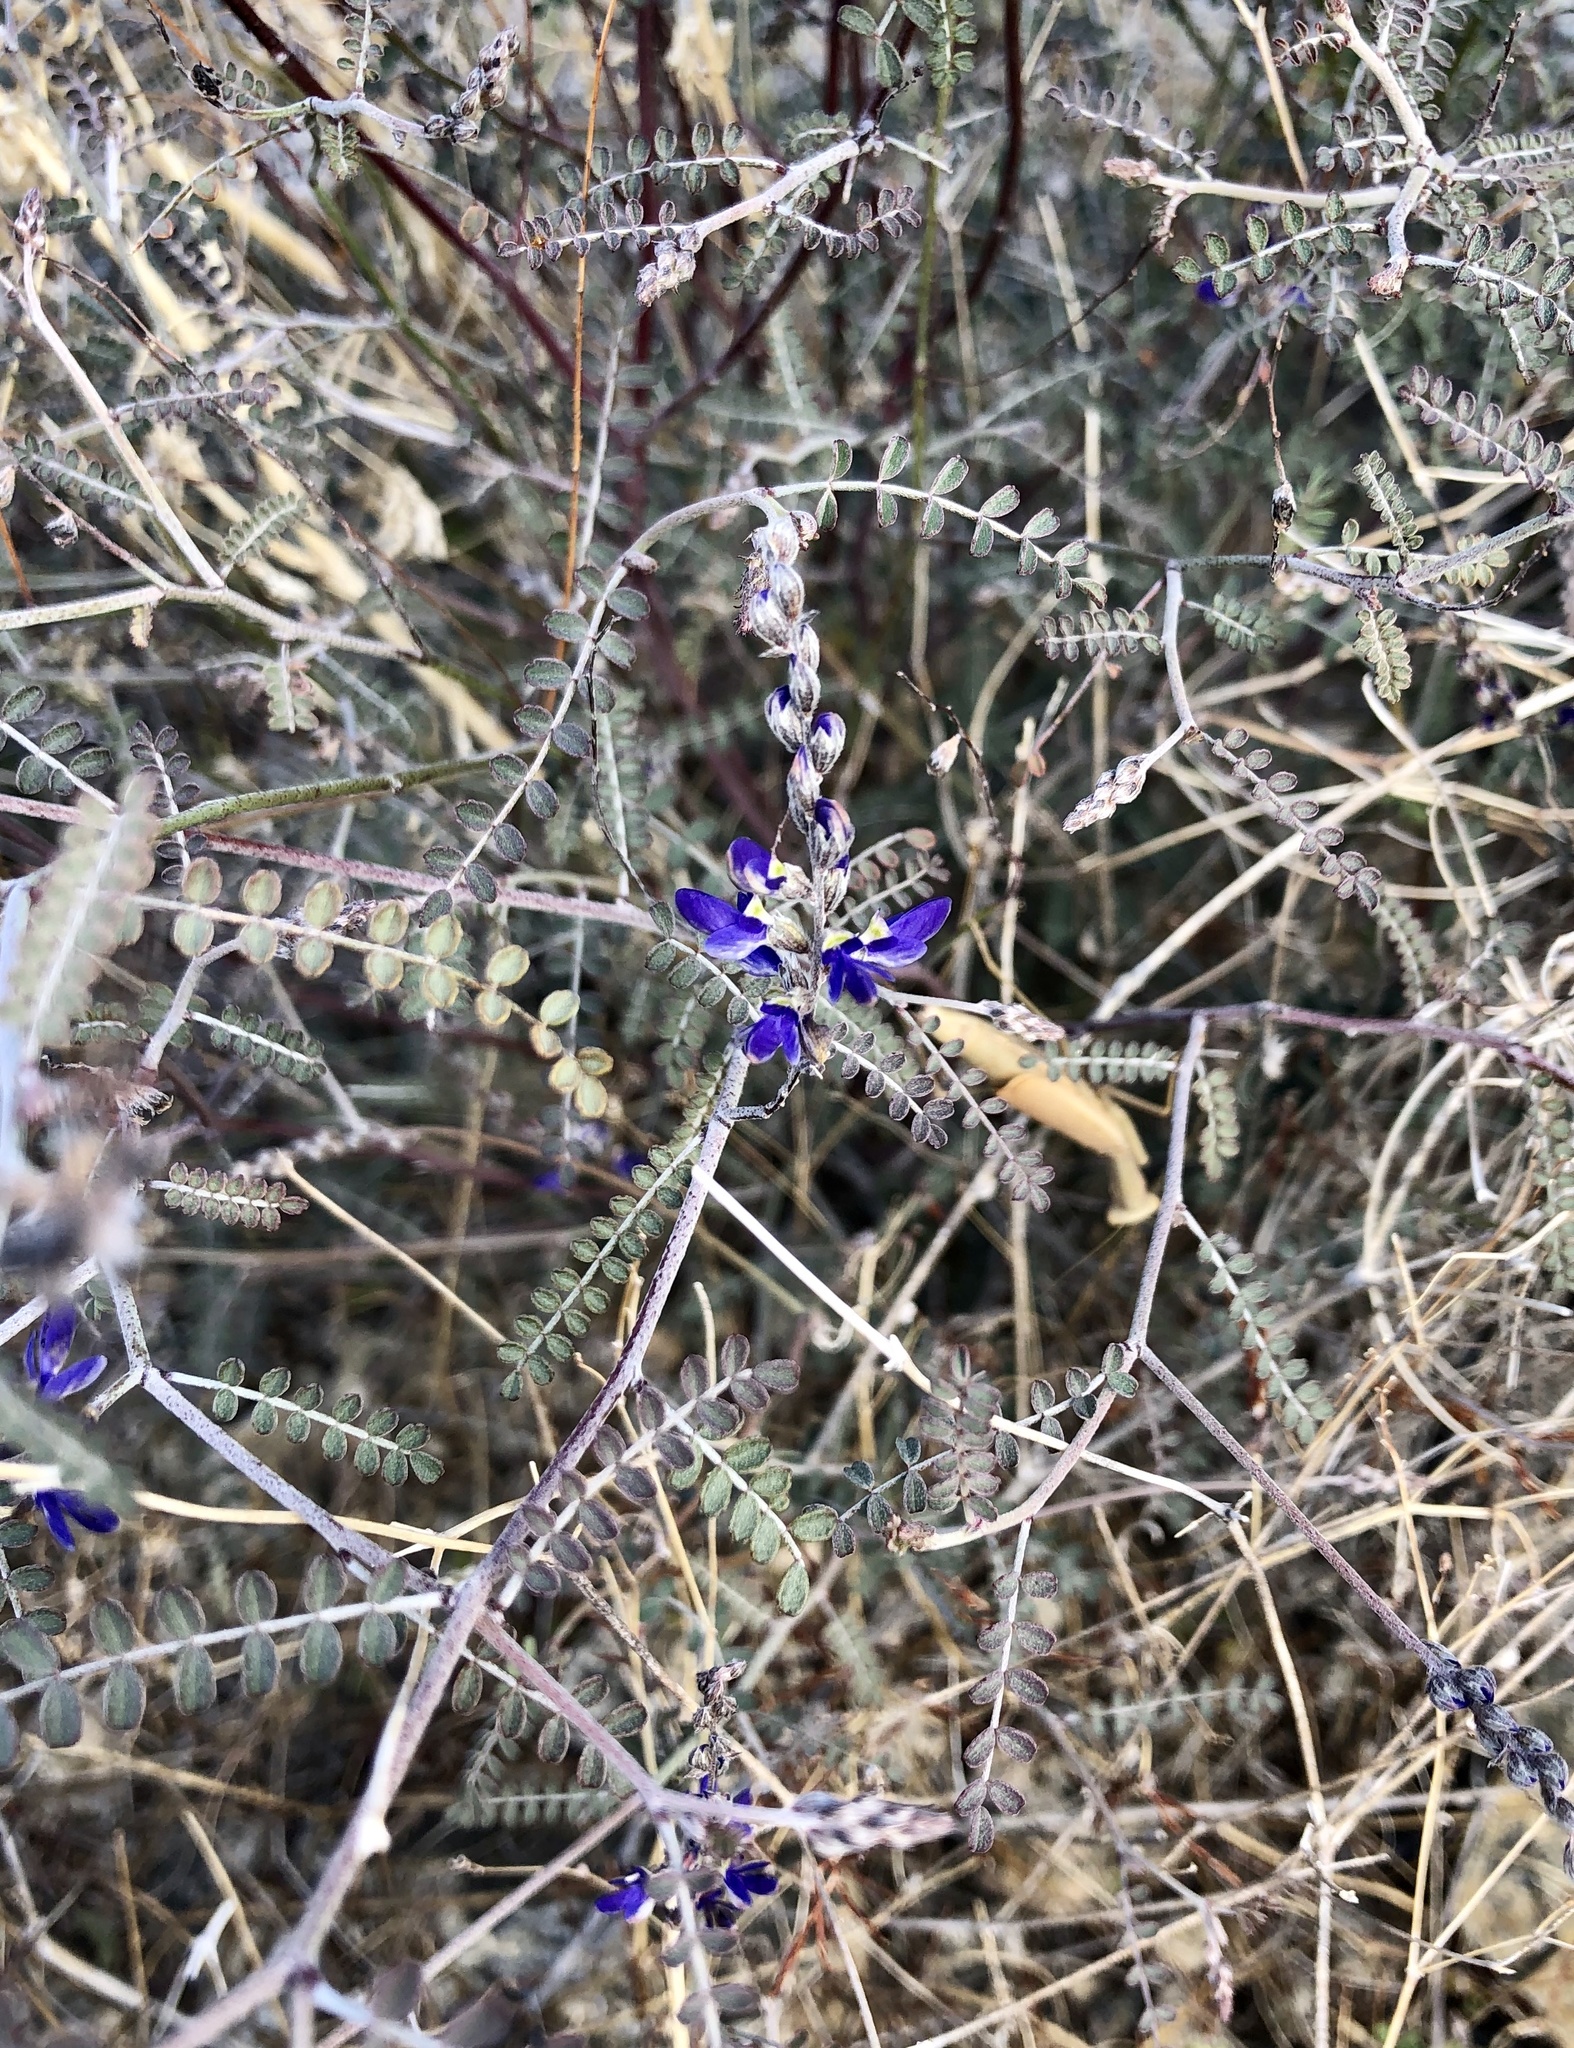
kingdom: Plantae
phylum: Tracheophyta
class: Magnoliopsida
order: Fabales
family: Fabaceae
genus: Marina
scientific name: Marina parryi
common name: Parry's marina
